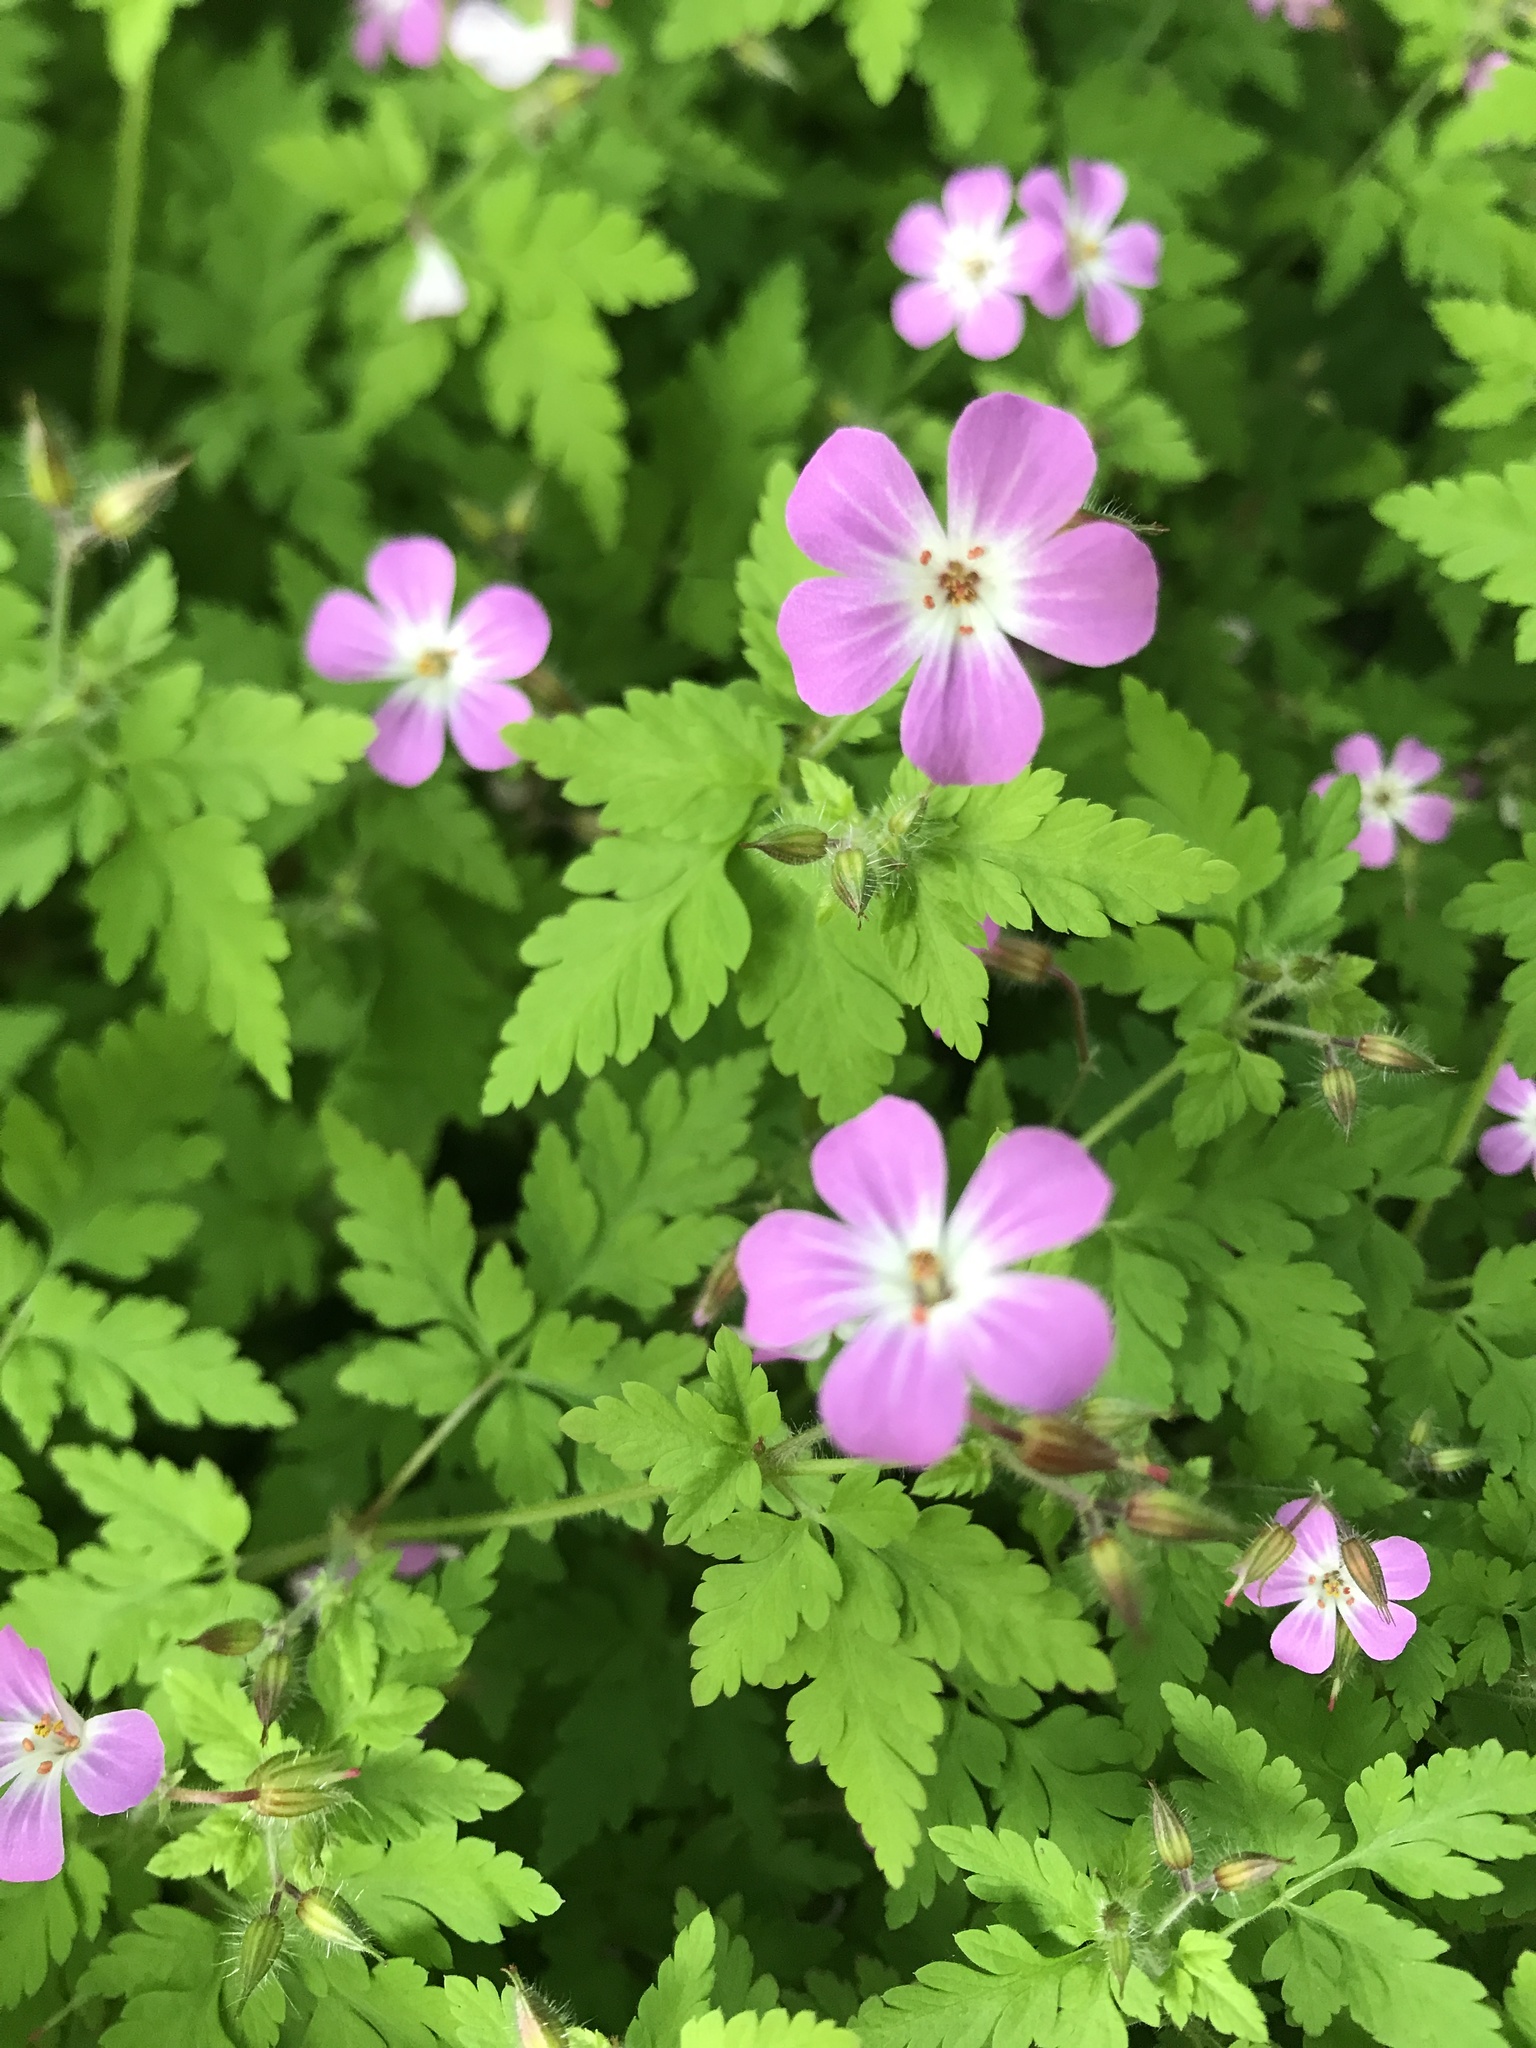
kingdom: Plantae
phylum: Tracheophyta
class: Magnoliopsida
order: Geraniales
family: Geraniaceae
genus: Geranium
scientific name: Geranium robertianum
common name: Herb-robert
